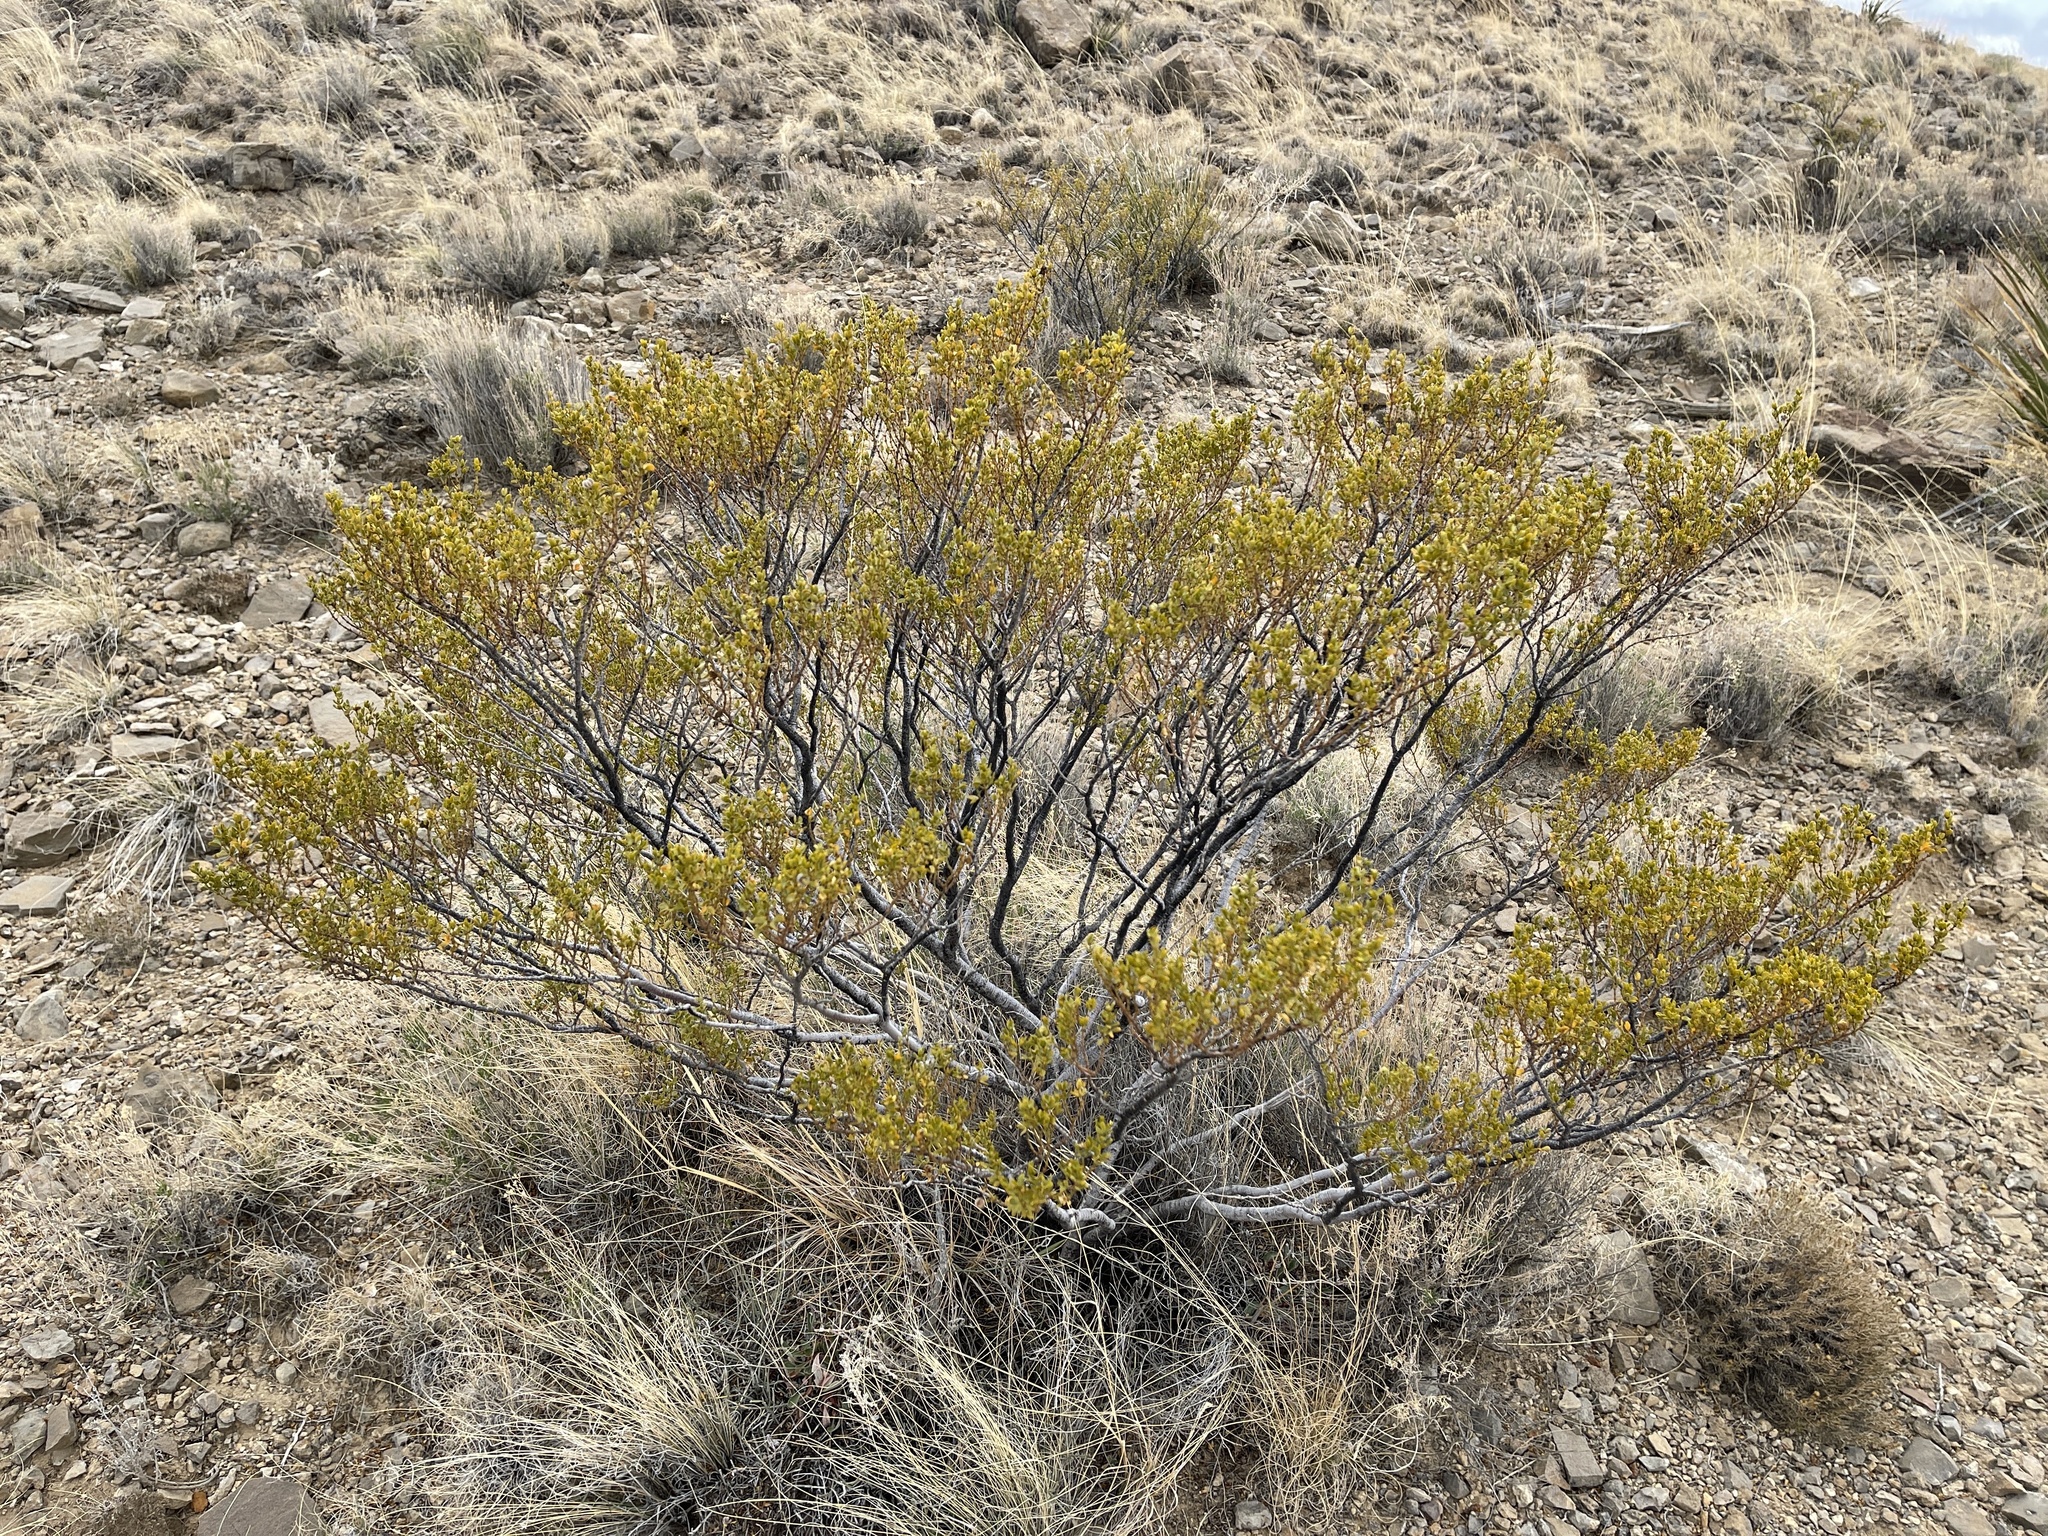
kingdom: Plantae
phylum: Tracheophyta
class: Magnoliopsida
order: Zygophyllales
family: Zygophyllaceae
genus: Larrea
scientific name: Larrea tridentata
